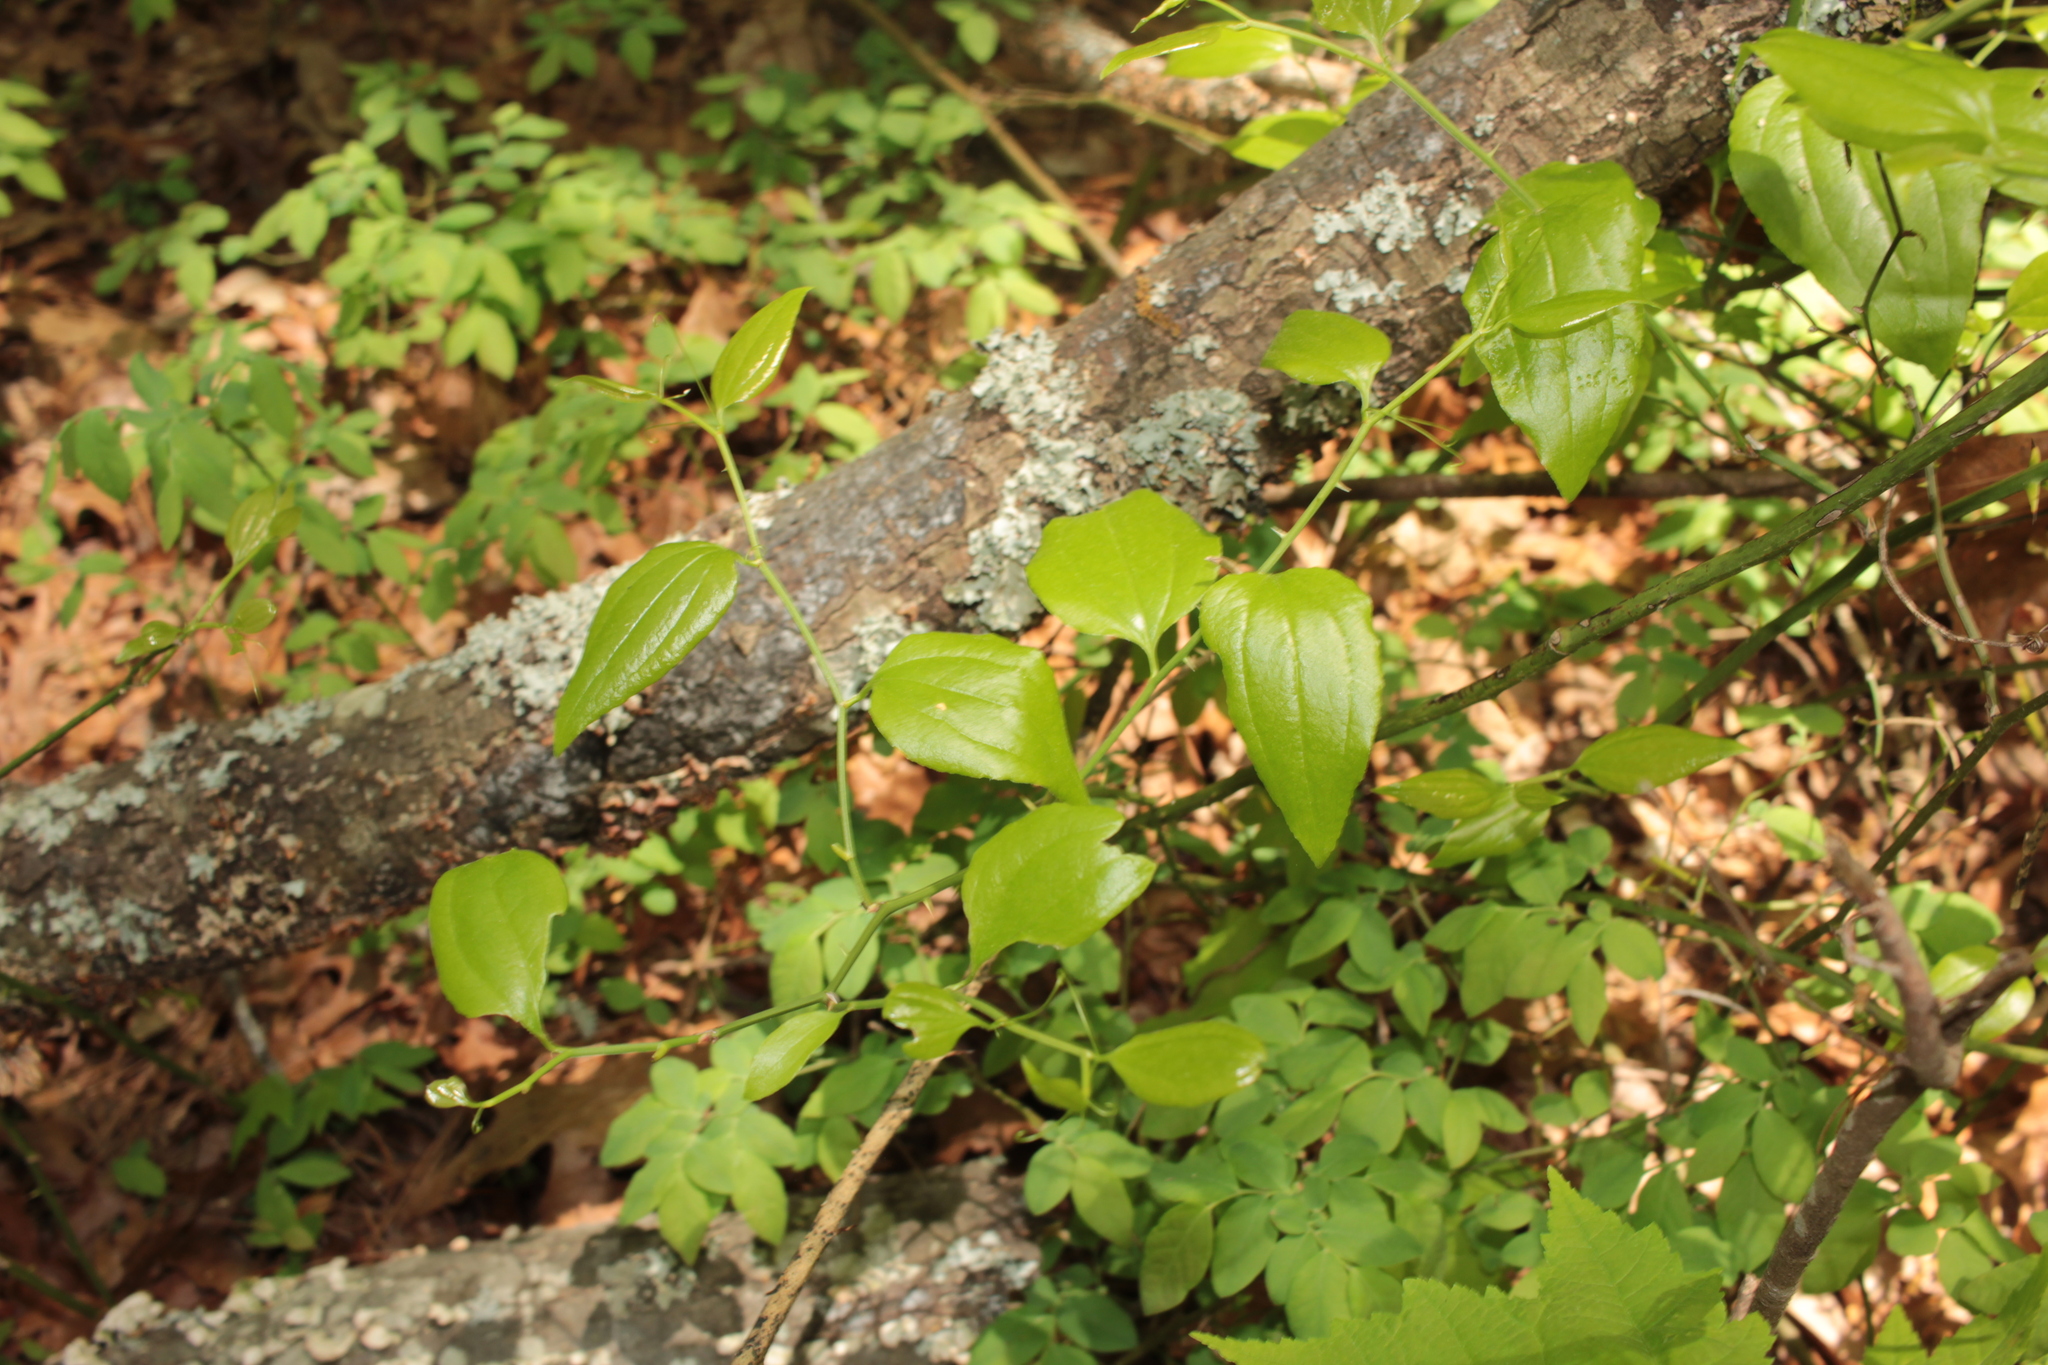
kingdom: Plantae
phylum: Tracheophyta
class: Liliopsida
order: Liliales
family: Smilacaceae
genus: Smilax
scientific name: Smilax rotundifolia
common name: Bullbriar
